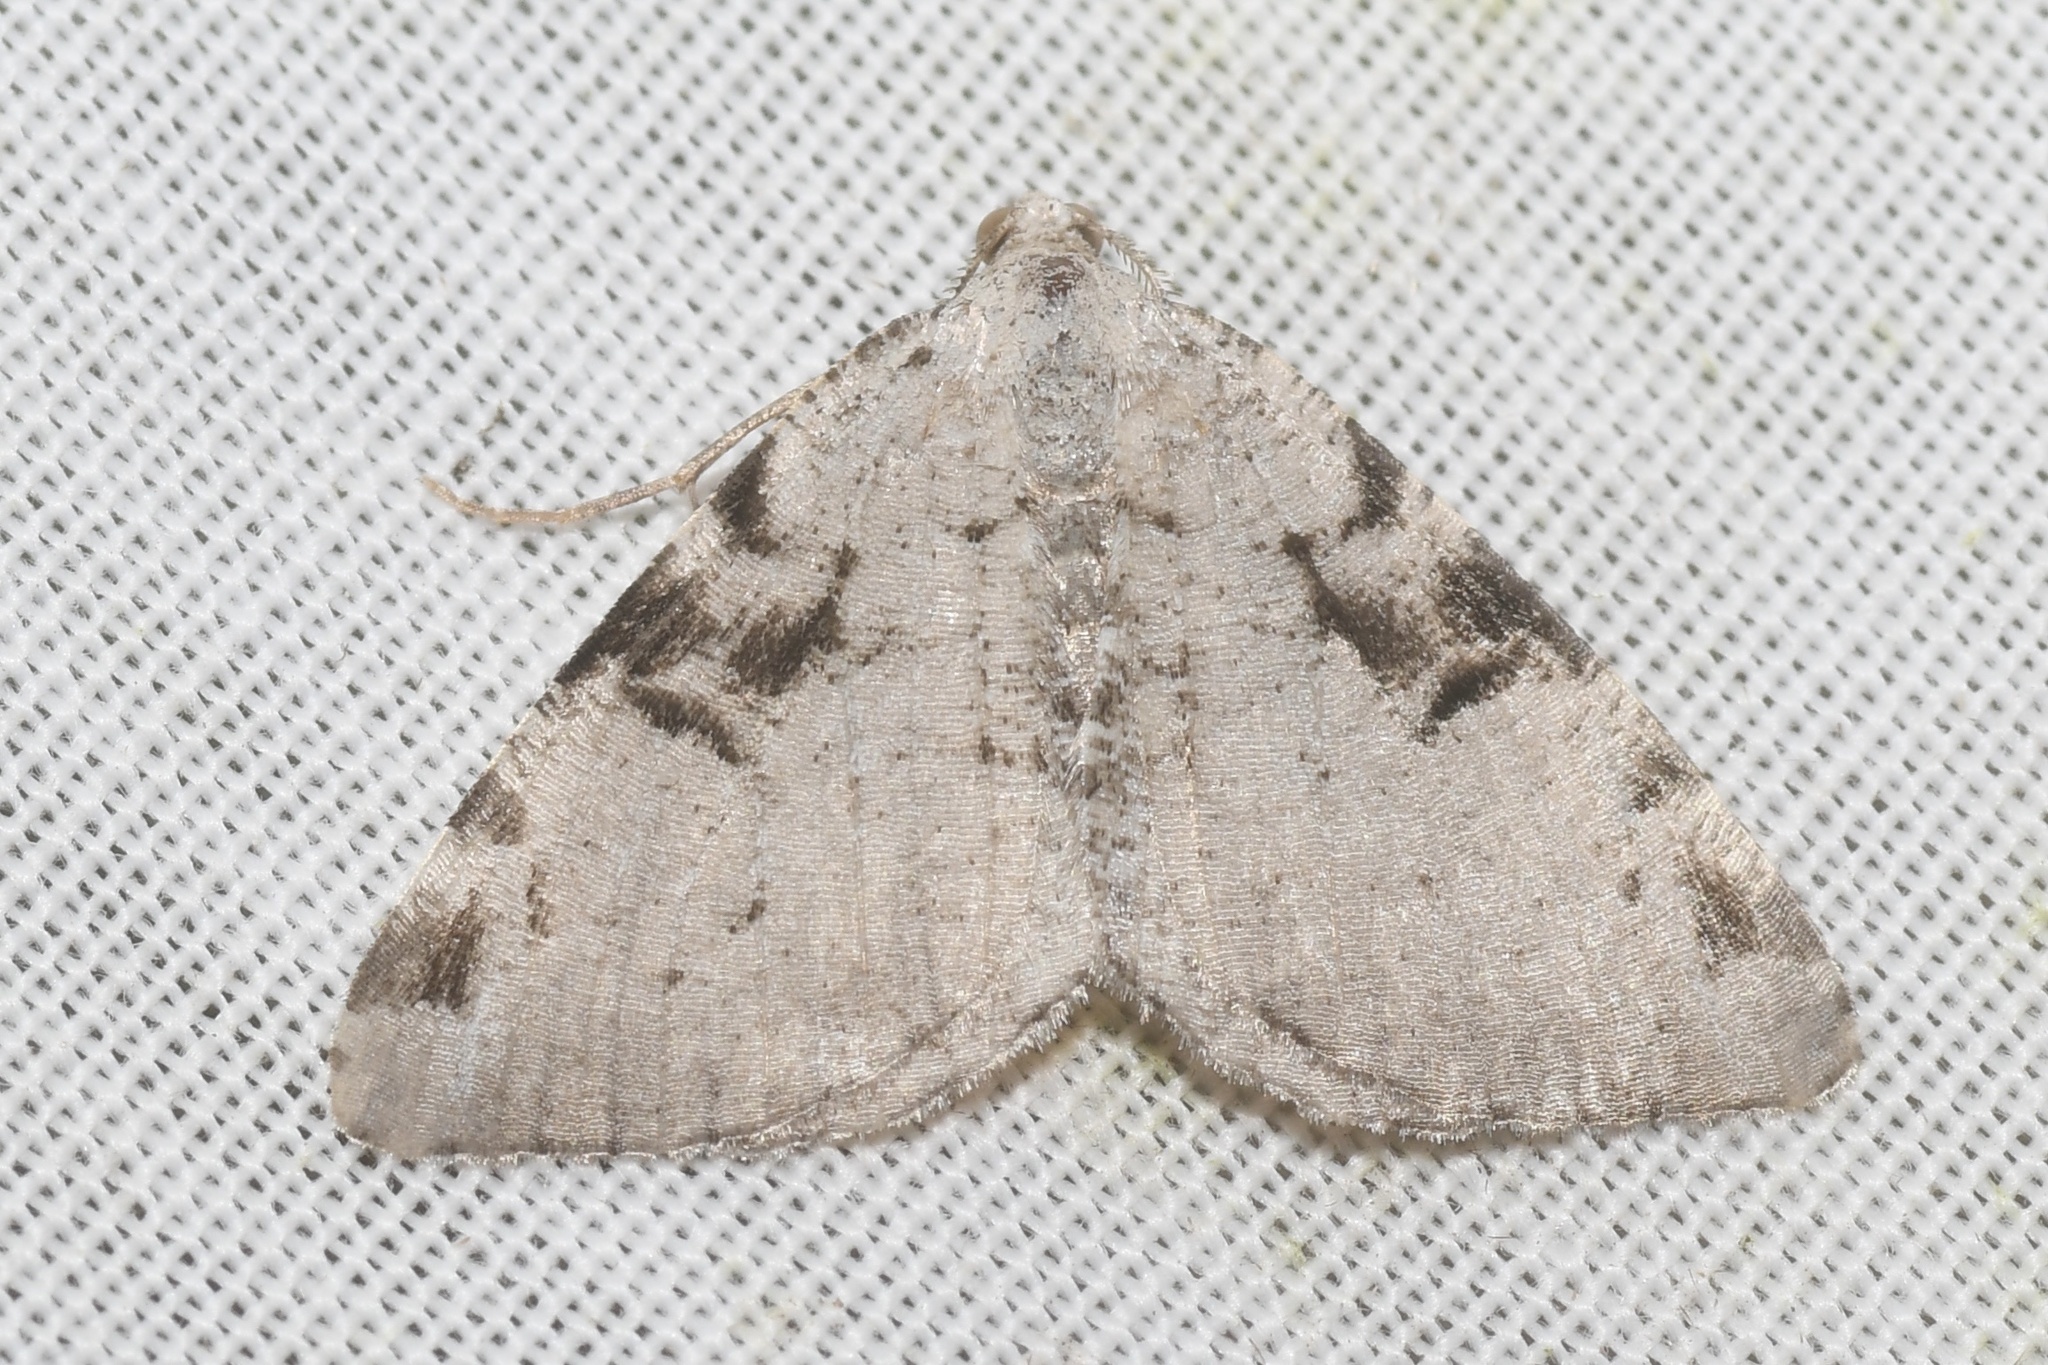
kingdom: Animalia
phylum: Arthropoda
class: Insecta
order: Lepidoptera
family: Geometridae
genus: Macaria
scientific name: Macaria bitactata
